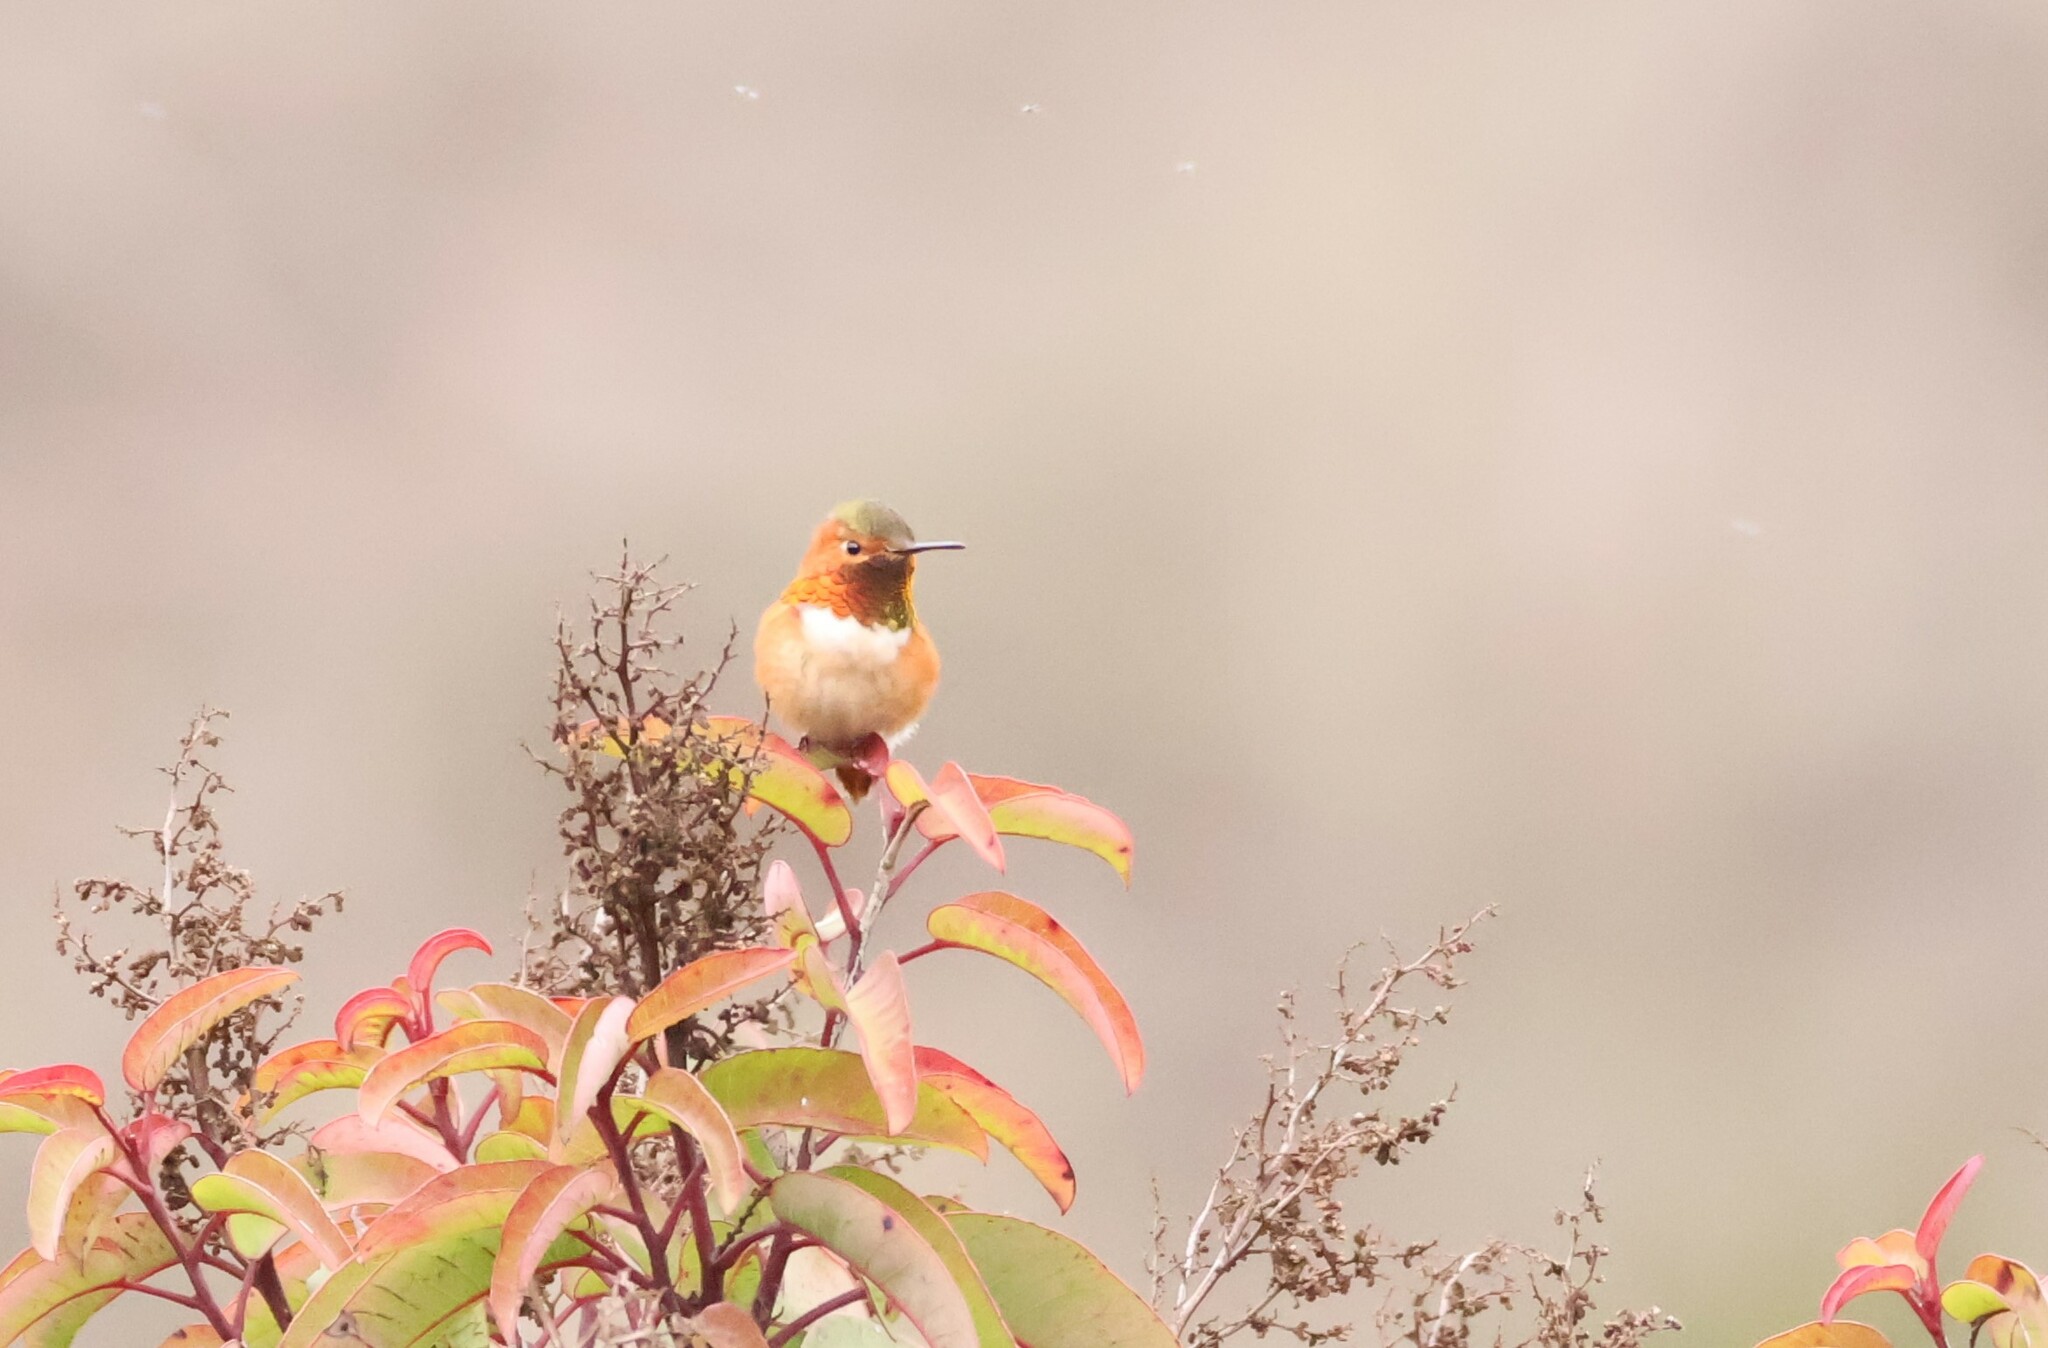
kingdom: Animalia
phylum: Chordata
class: Aves
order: Apodiformes
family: Trochilidae
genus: Selasphorus
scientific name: Selasphorus sasin
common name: Allen's hummingbird
